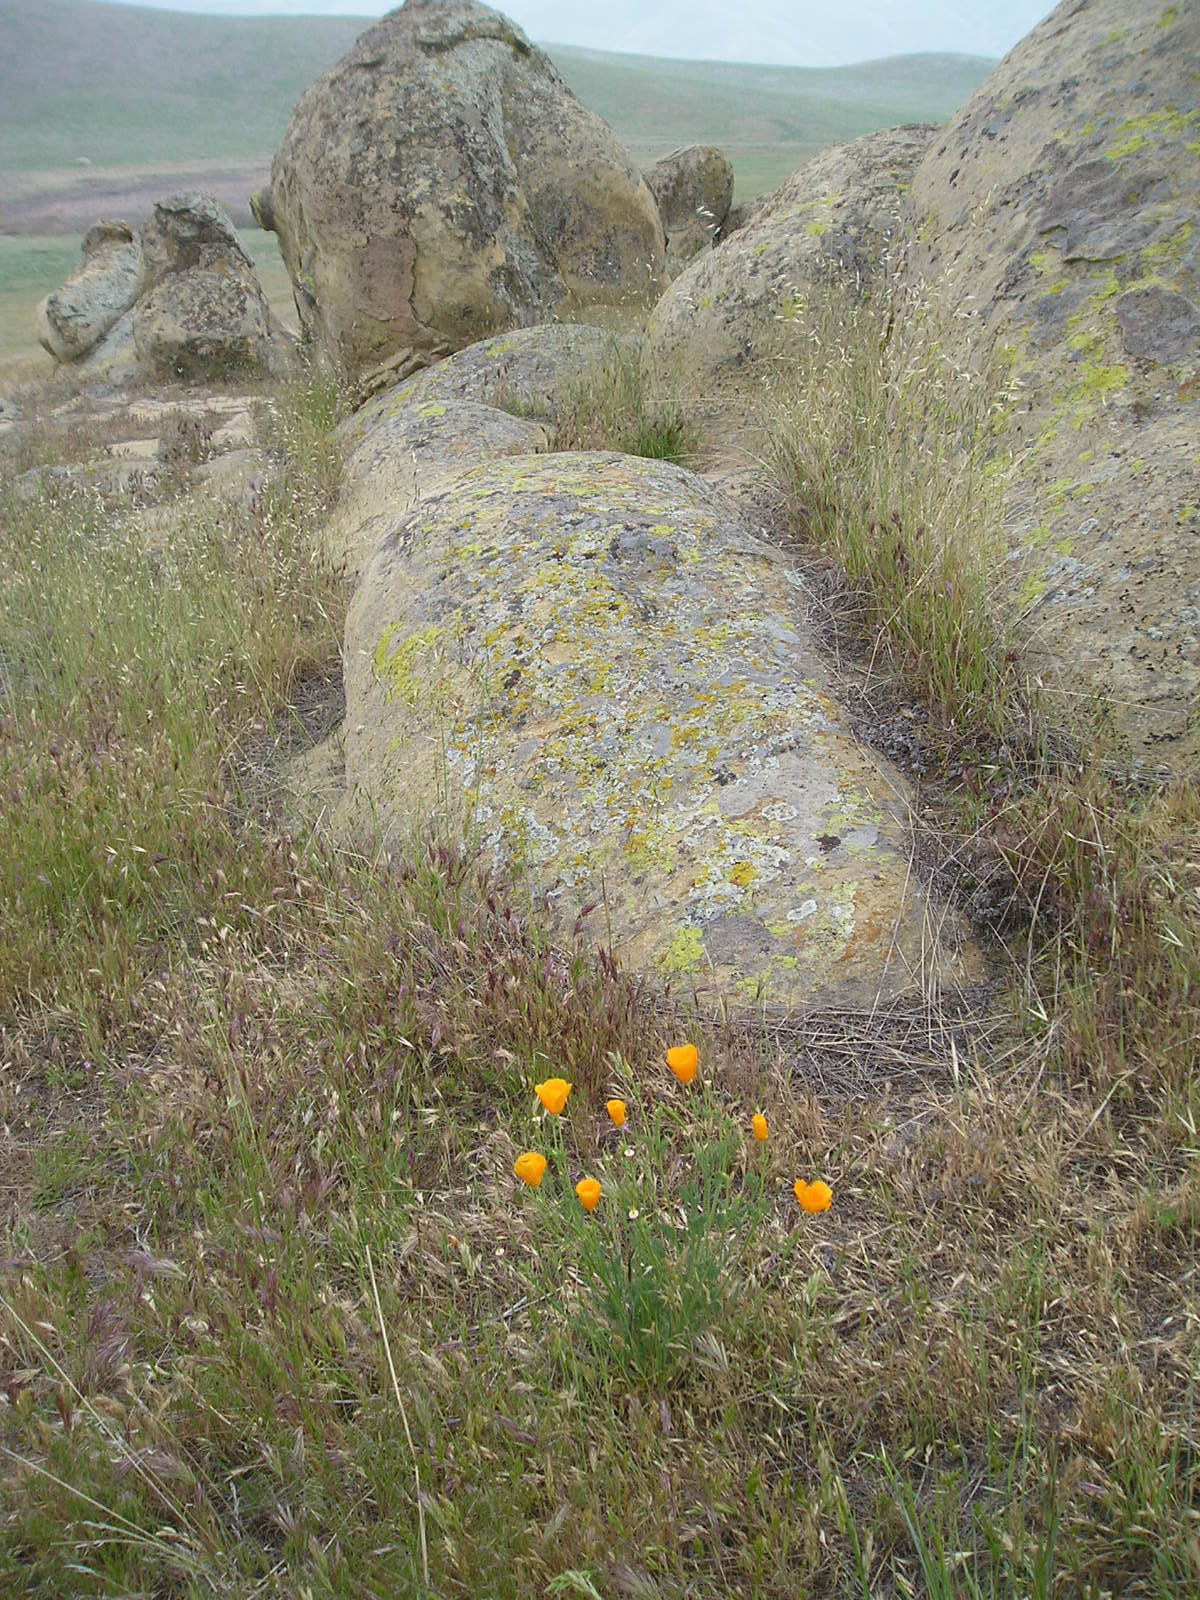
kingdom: Plantae
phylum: Tracheophyta
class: Liliopsida
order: Poales
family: Poaceae
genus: Bromus
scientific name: Bromus madritensis
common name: Compact brome
